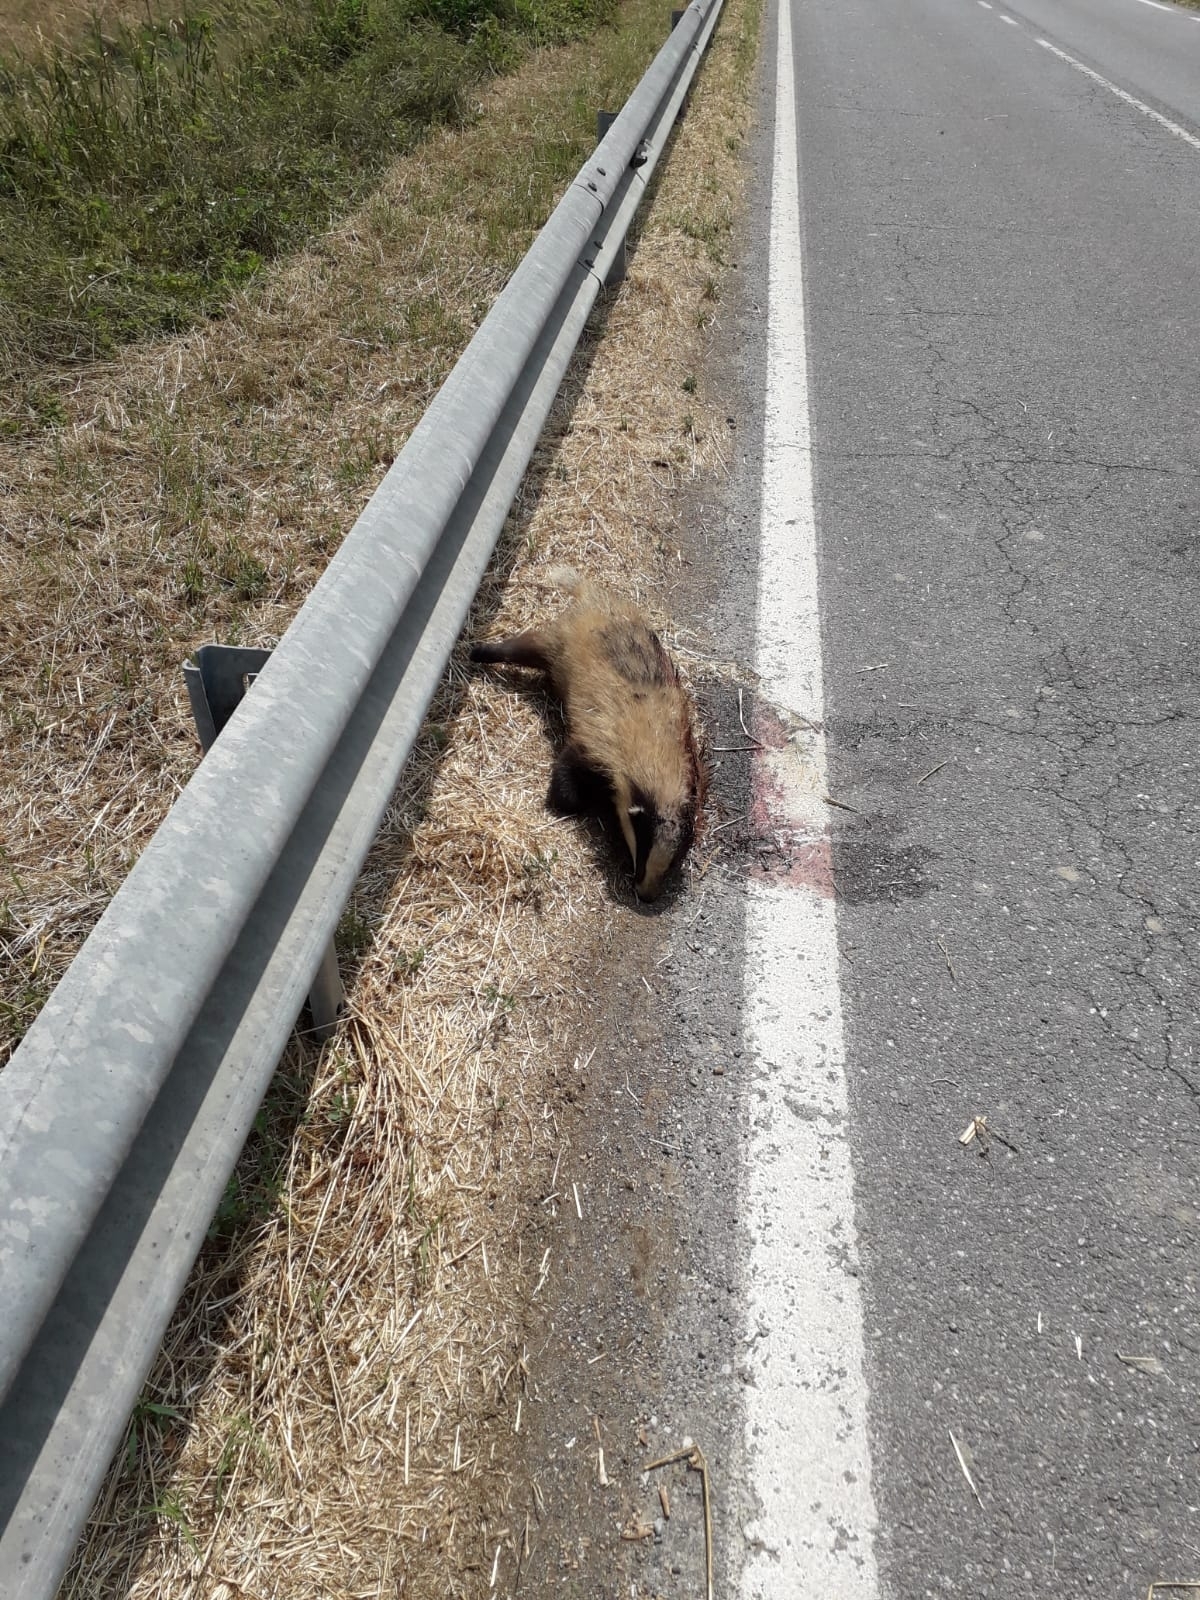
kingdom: Animalia
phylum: Chordata
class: Mammalia
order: Carnivora
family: Mustelidae
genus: Meles
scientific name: Meles meles
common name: Eurasian badger
